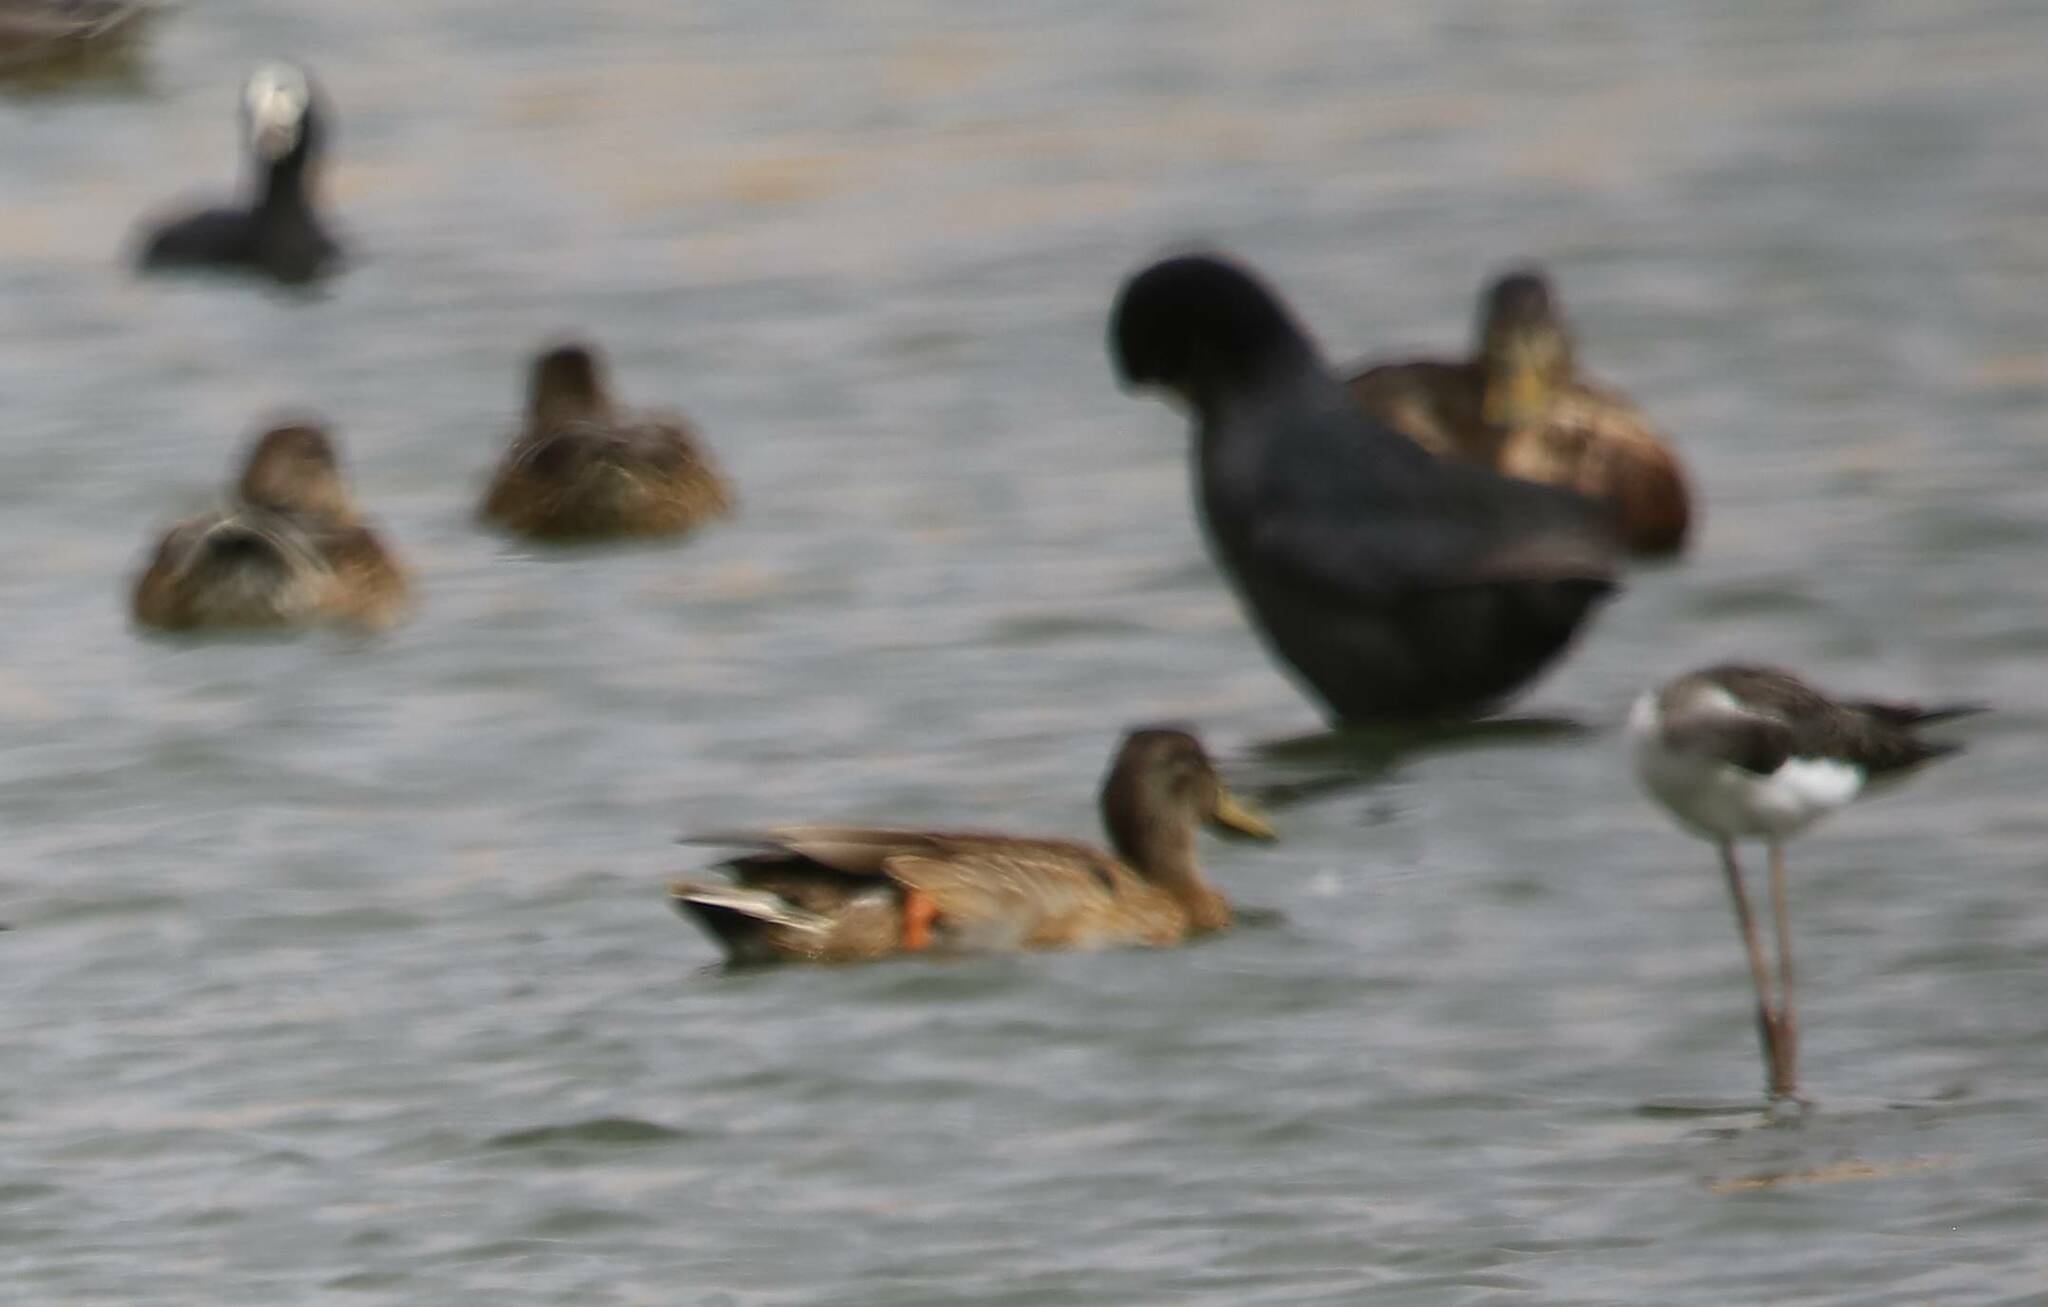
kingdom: Animalia
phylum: Chordata
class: Aves
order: Anseriformes
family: Anatidae
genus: Anas
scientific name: Anas platyrhynchos
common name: Mallard
